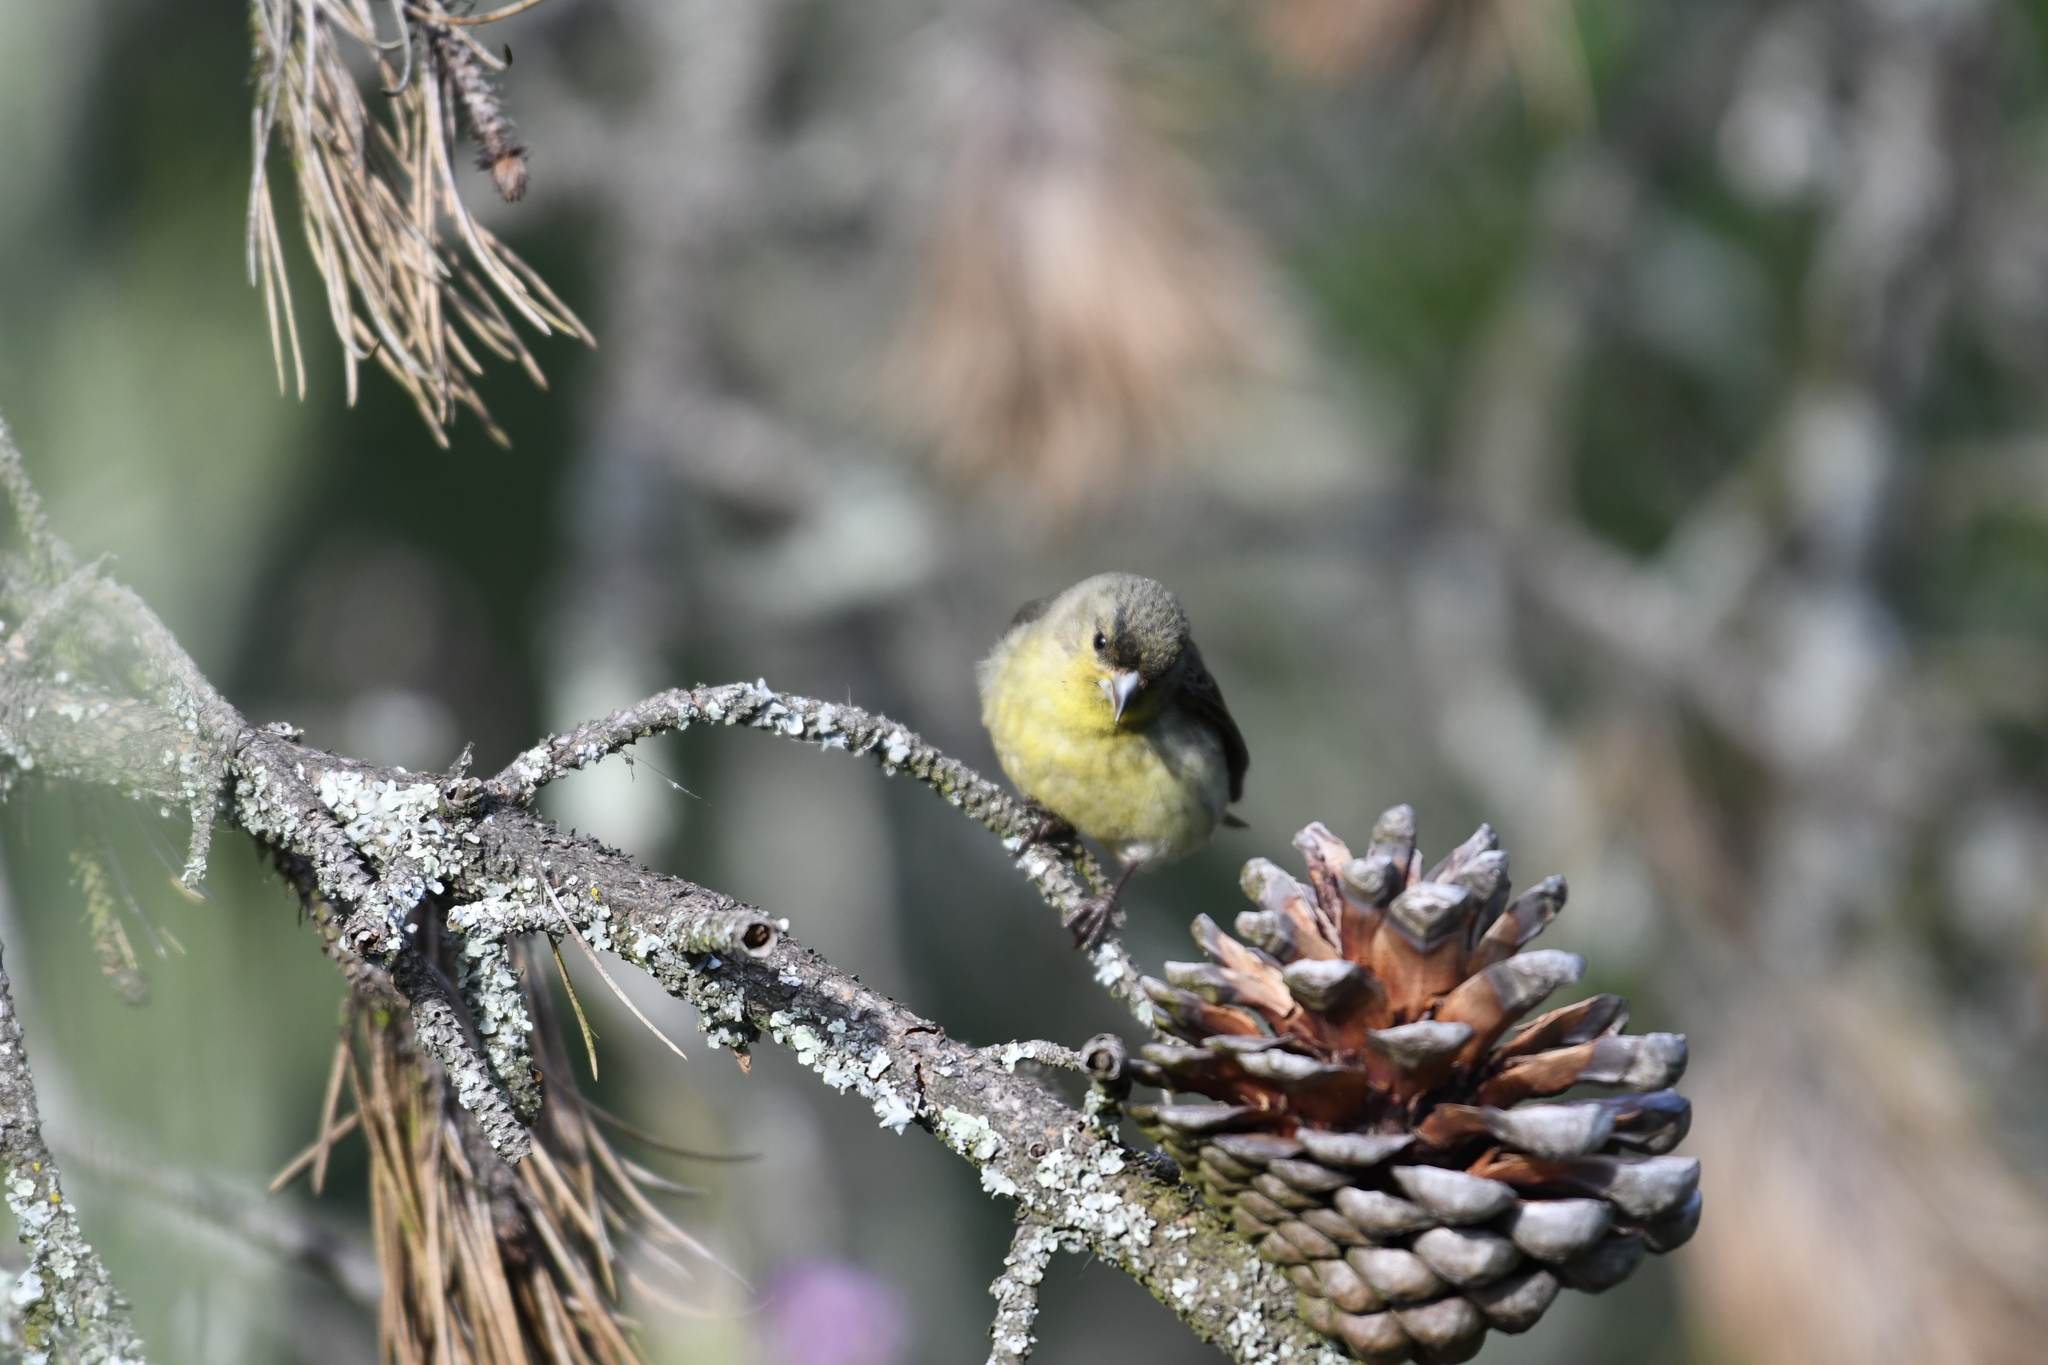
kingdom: Animalia
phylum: Chordata
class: Aves
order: Passeriformes
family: Fringillidae
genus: Spinus
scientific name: Spinus psaltria
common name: Lesser goldfinch
